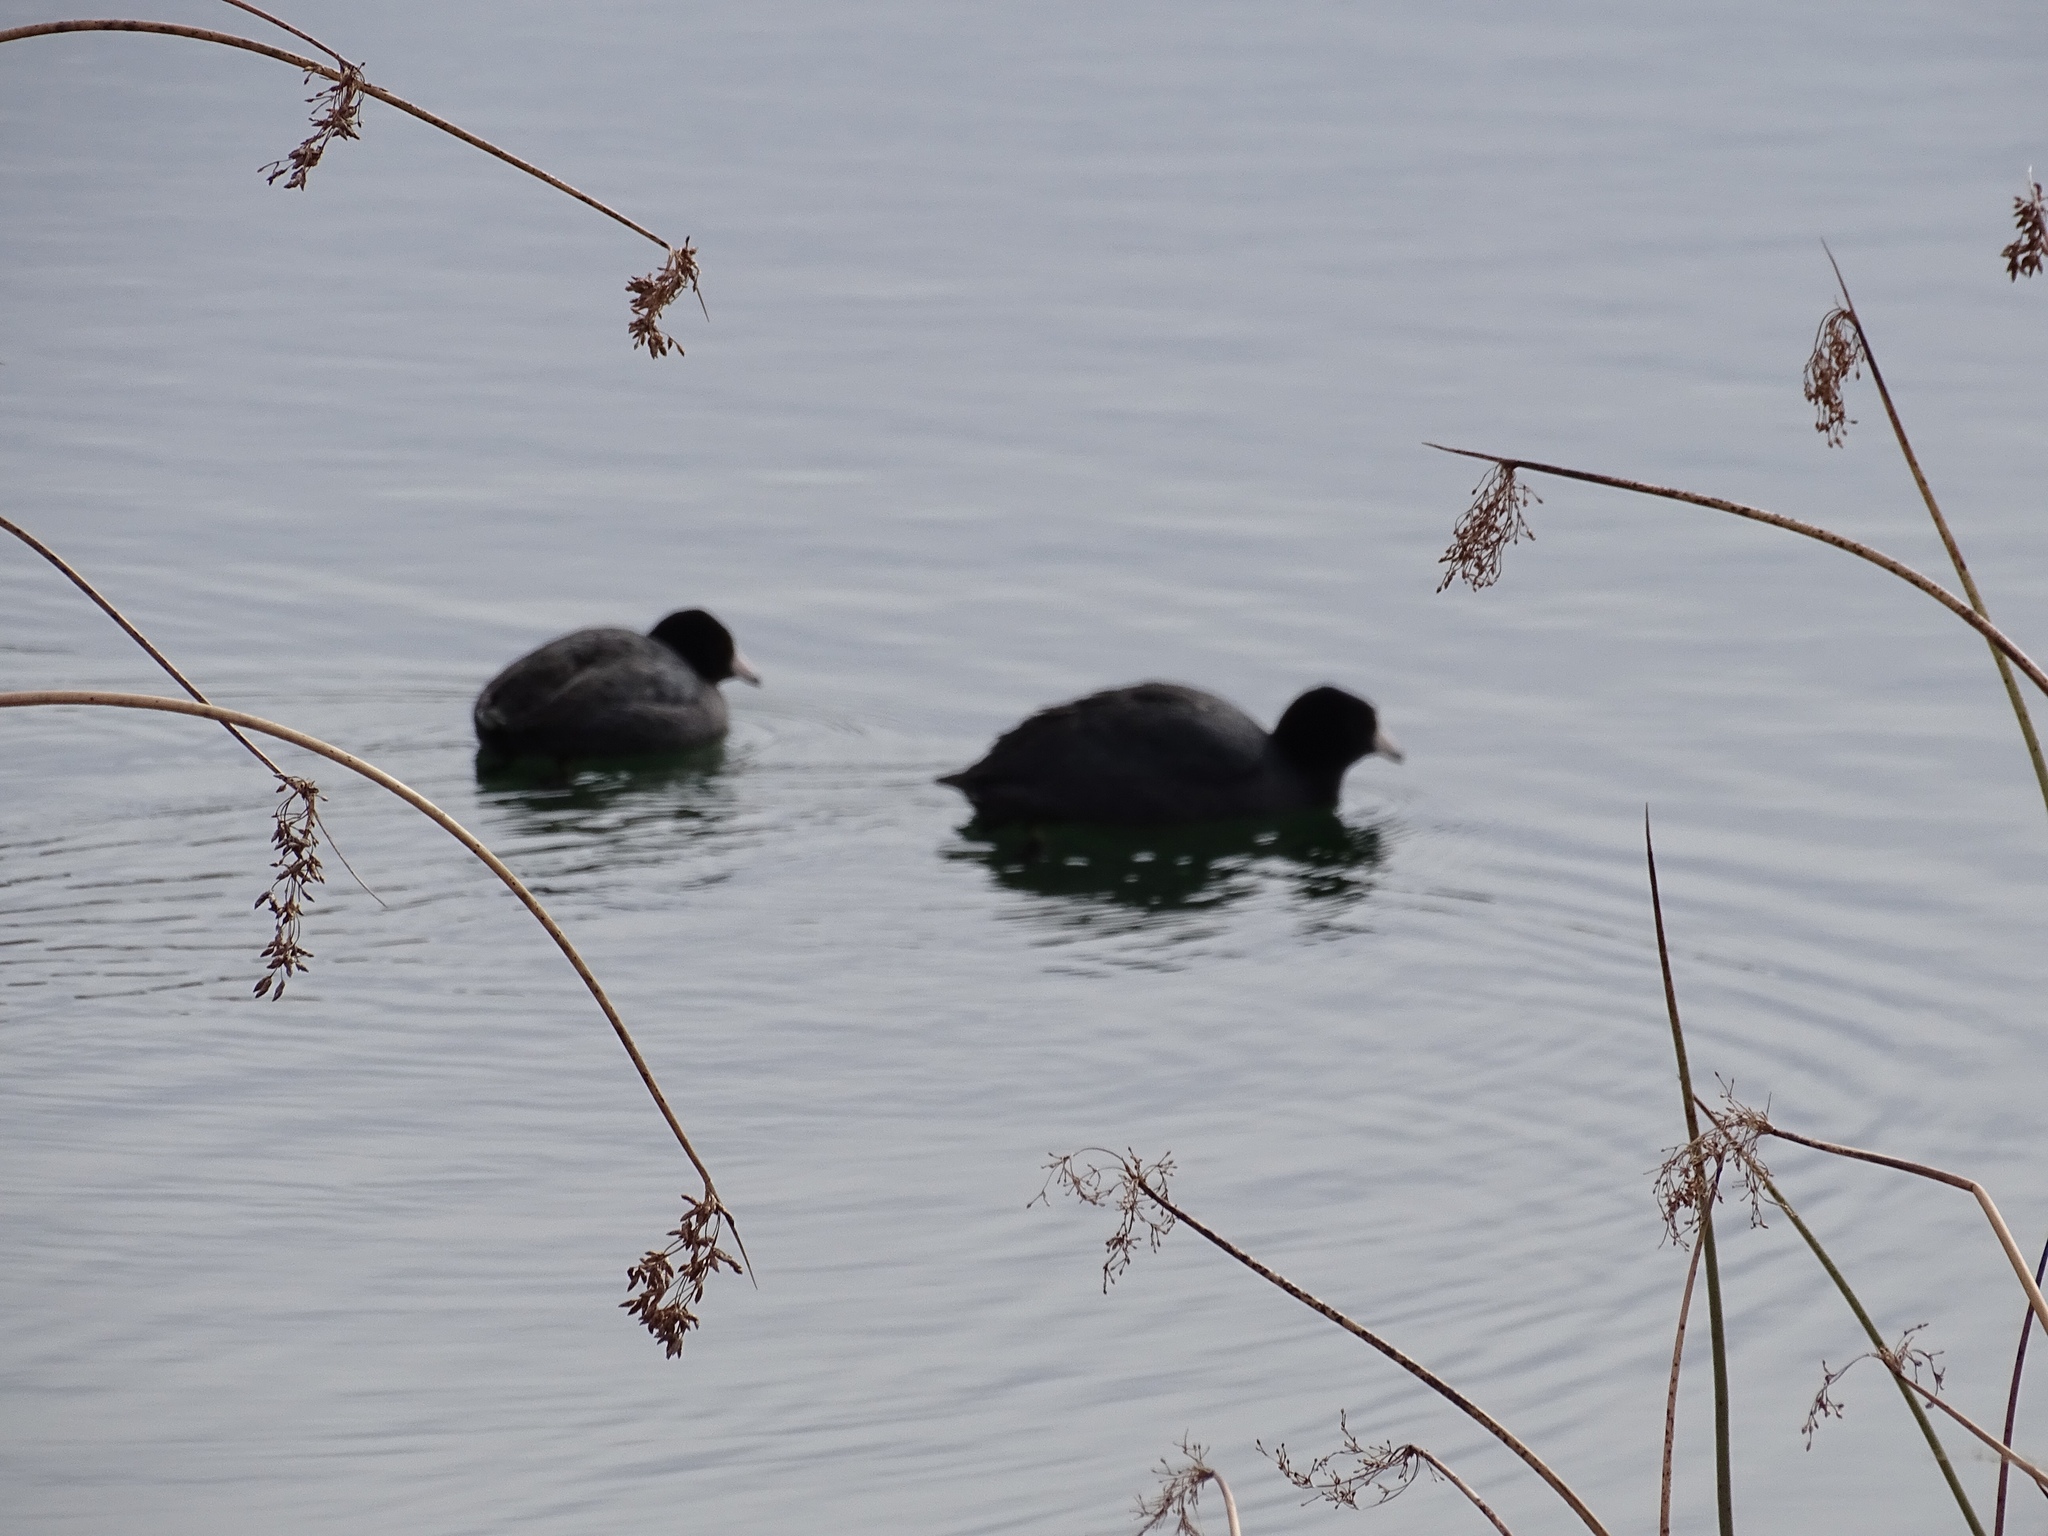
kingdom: Animalia
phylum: Chordata
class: Aves
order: Gruiformes
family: Rallidae
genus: Fulica
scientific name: Fulica americana
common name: American coot
